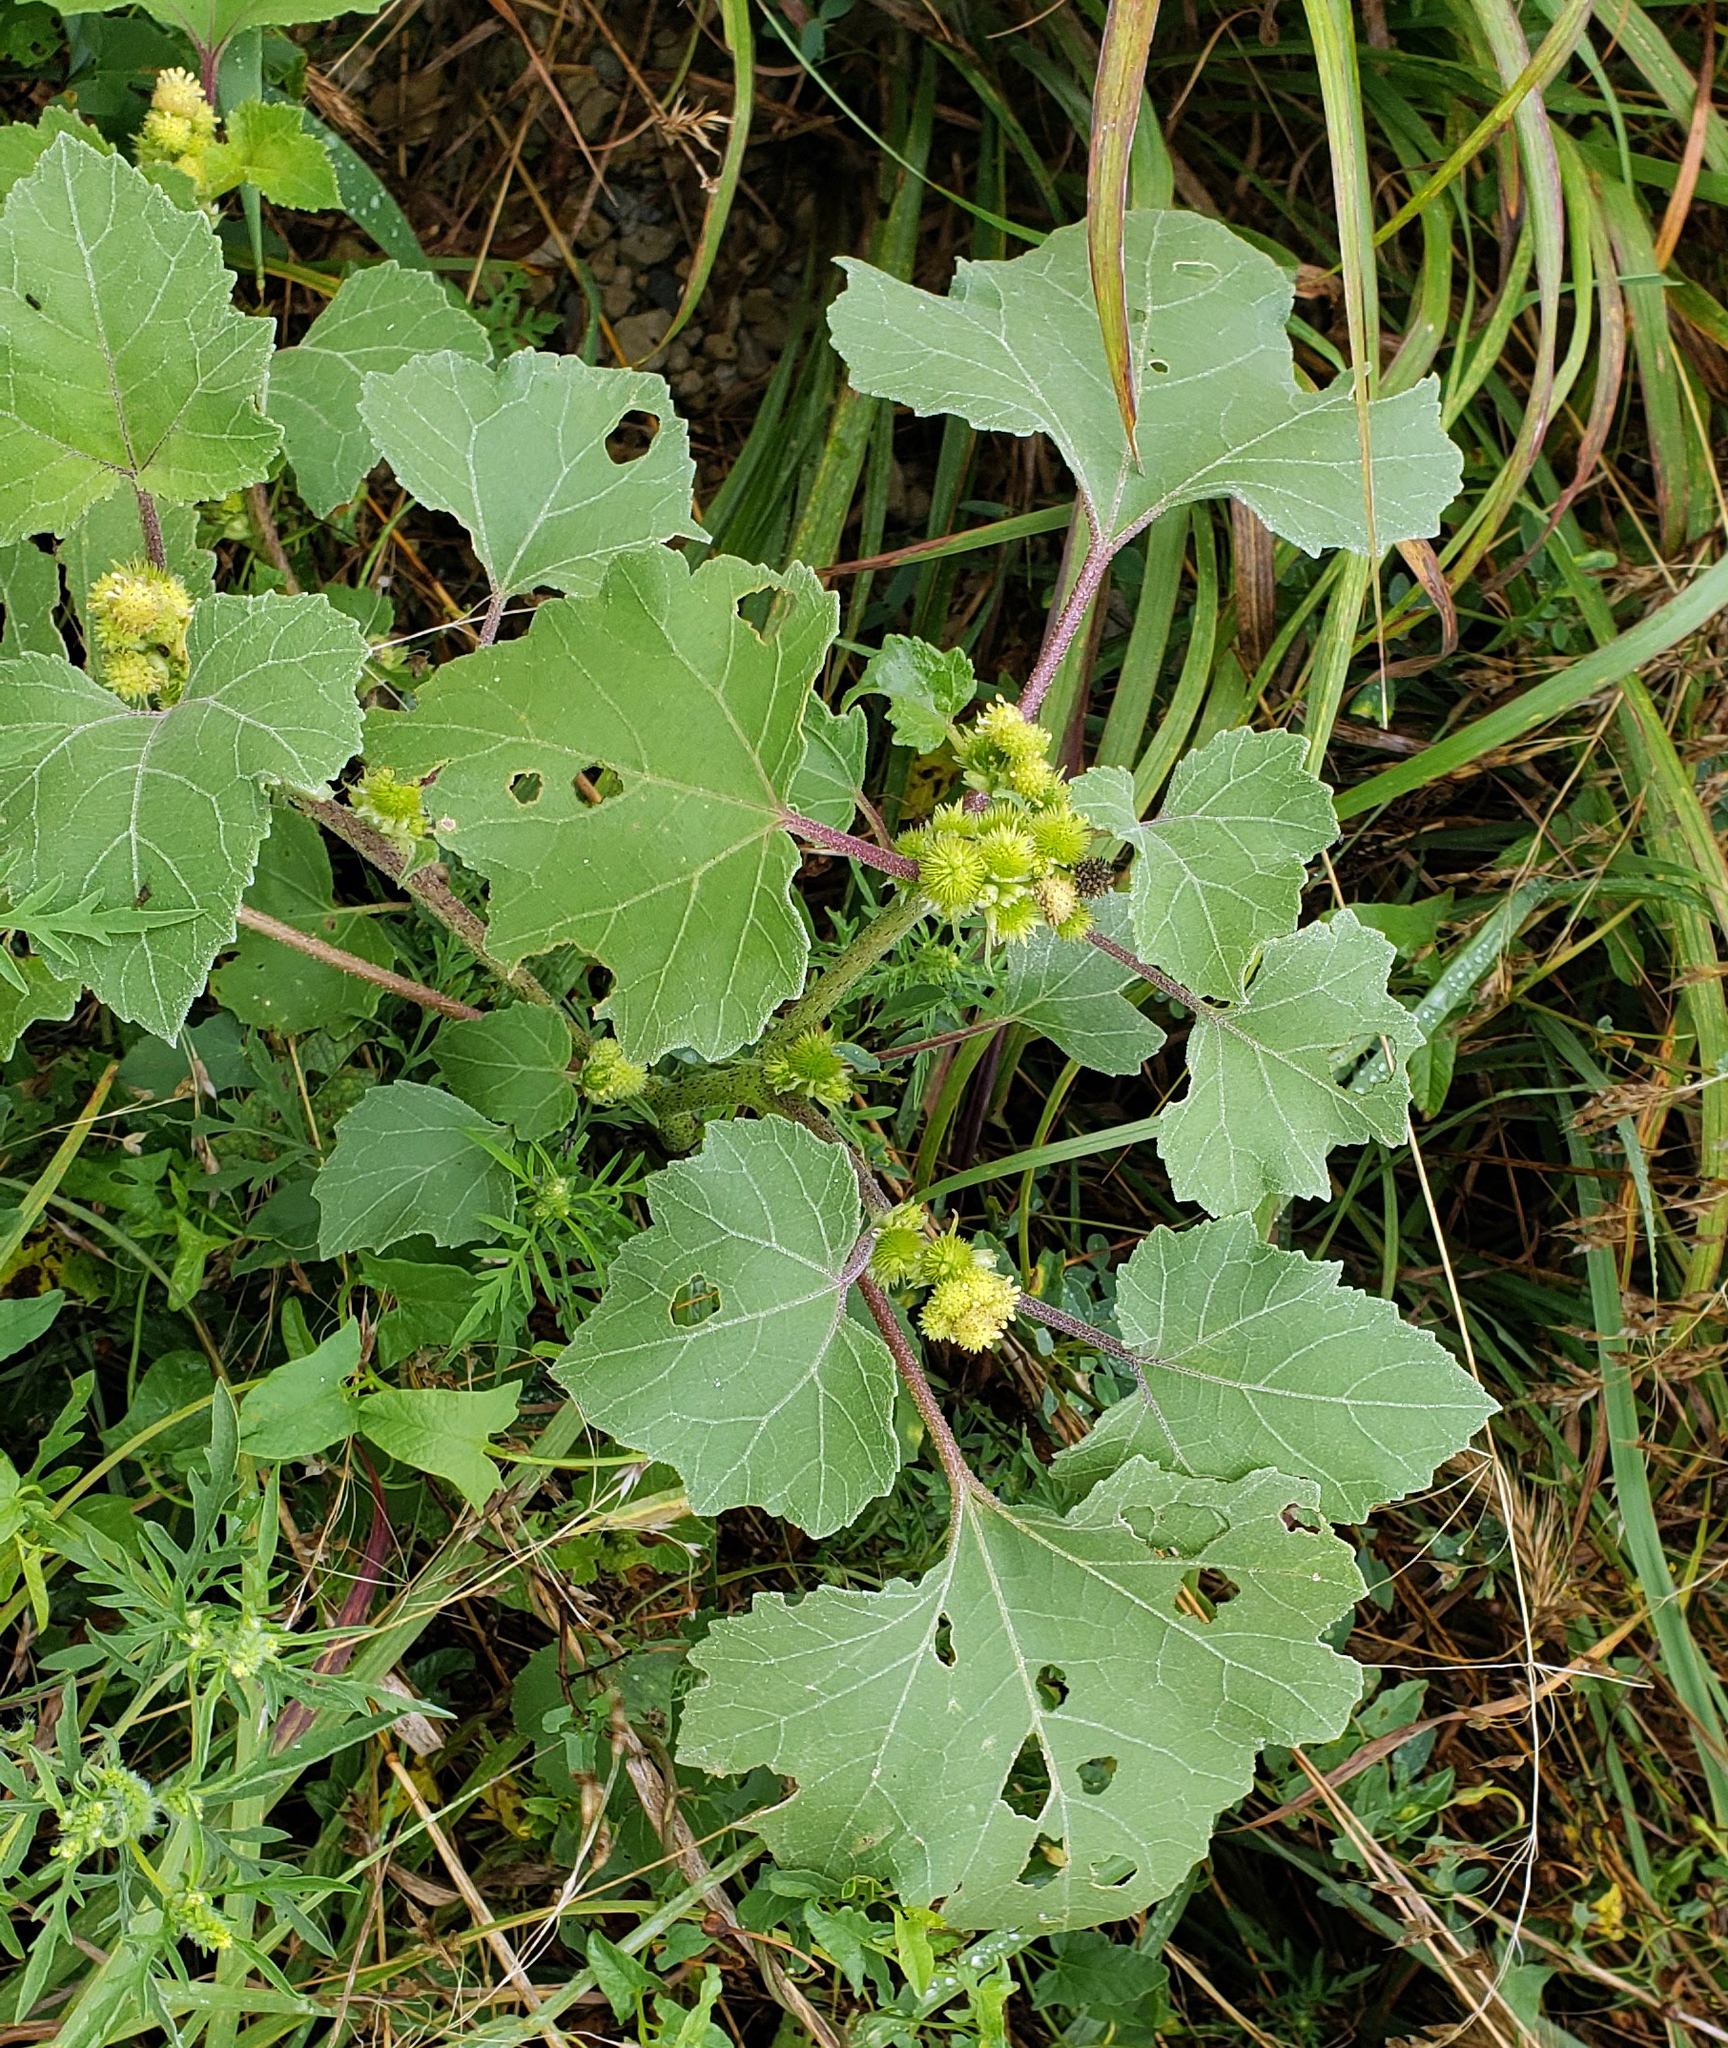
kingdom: Plantae
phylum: Tracheophyta
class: Magnoliopsida
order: Asterales
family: Asteraceae
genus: Xanthium
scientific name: Xanthium strumarium
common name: Rough cocklebur
